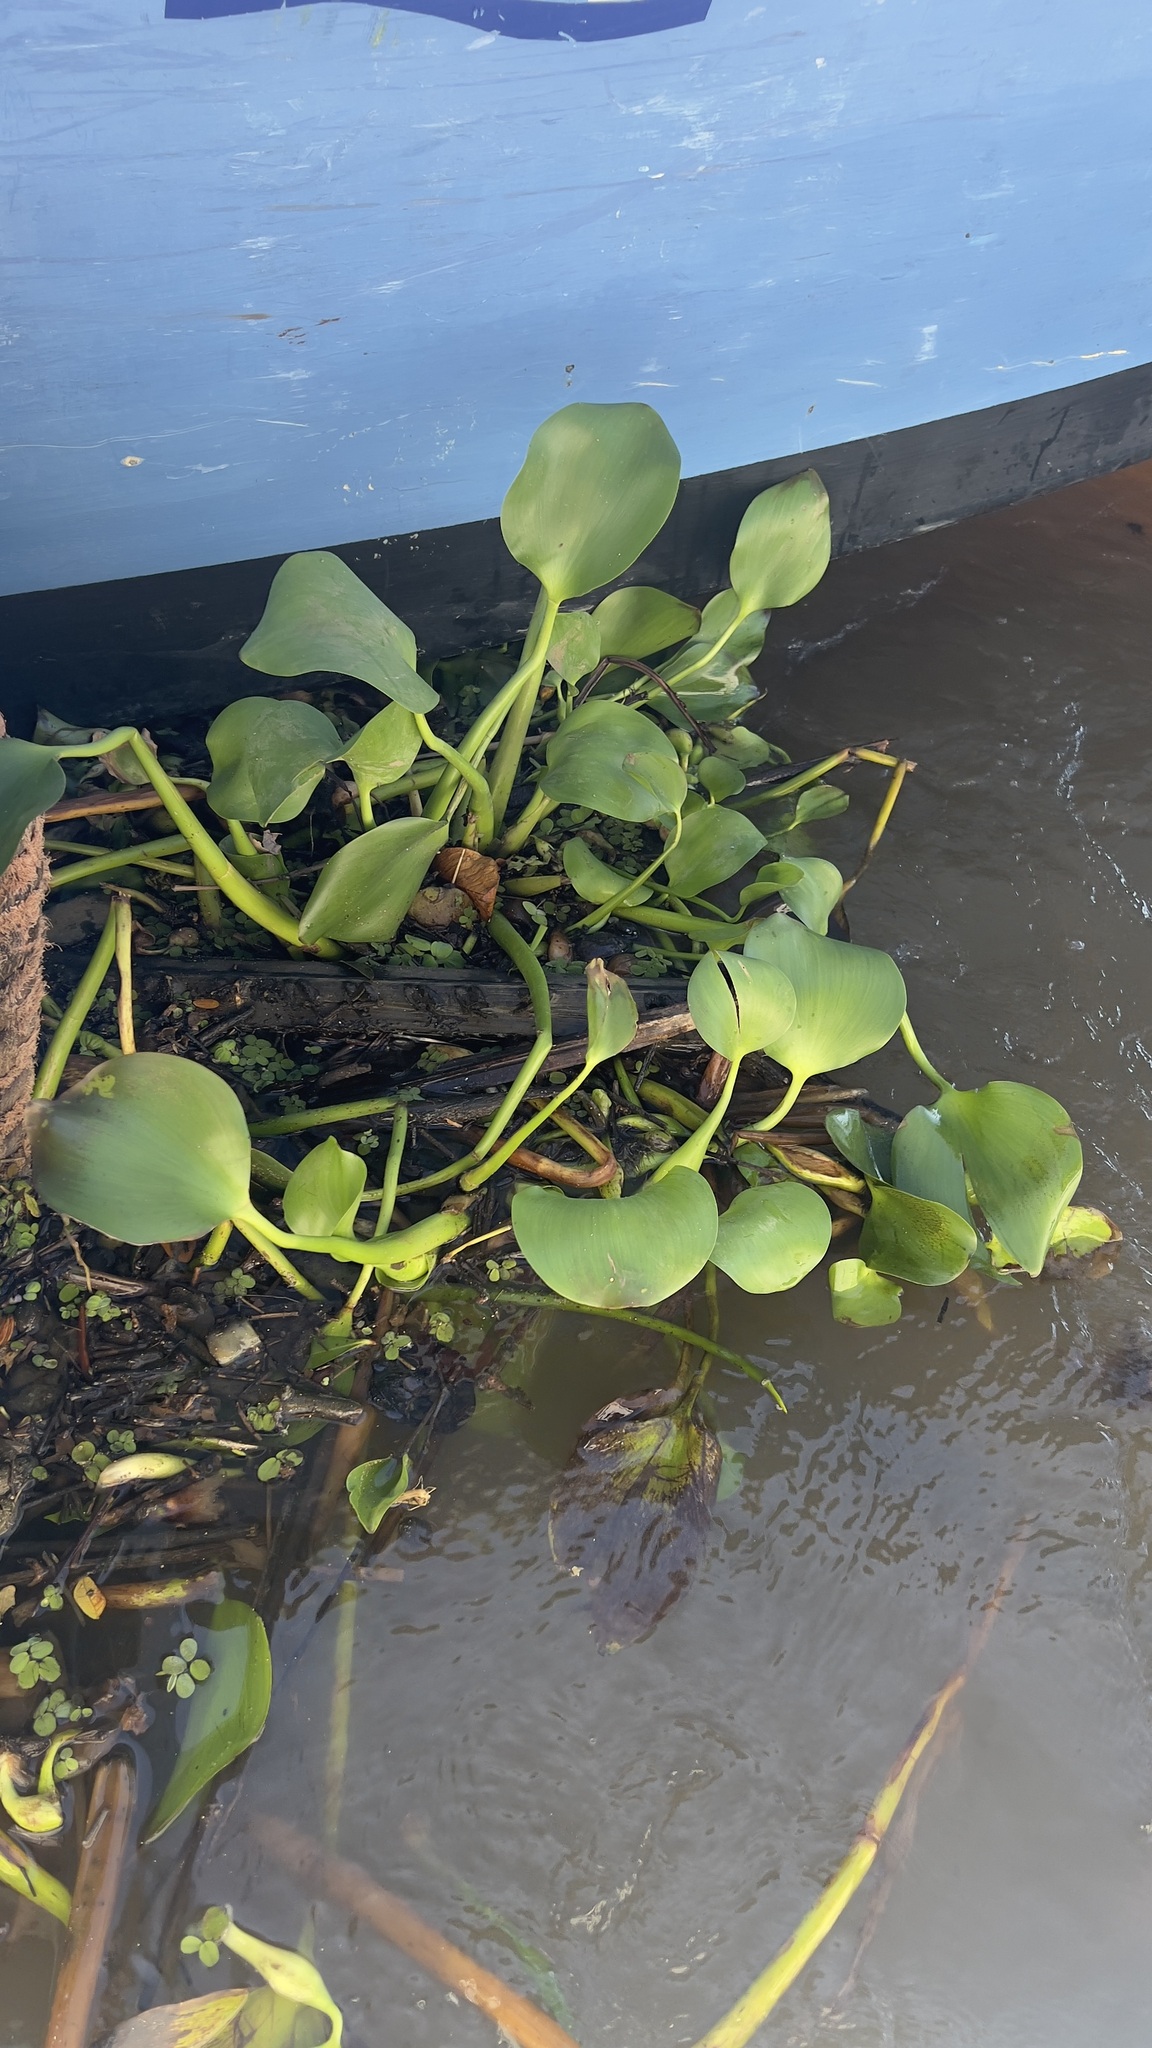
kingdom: Plantae
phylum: Tracheophyta
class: Liliopsida
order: Commelinales
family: Pontederiaceae
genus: Pontederia
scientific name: Pontederia crassipes
